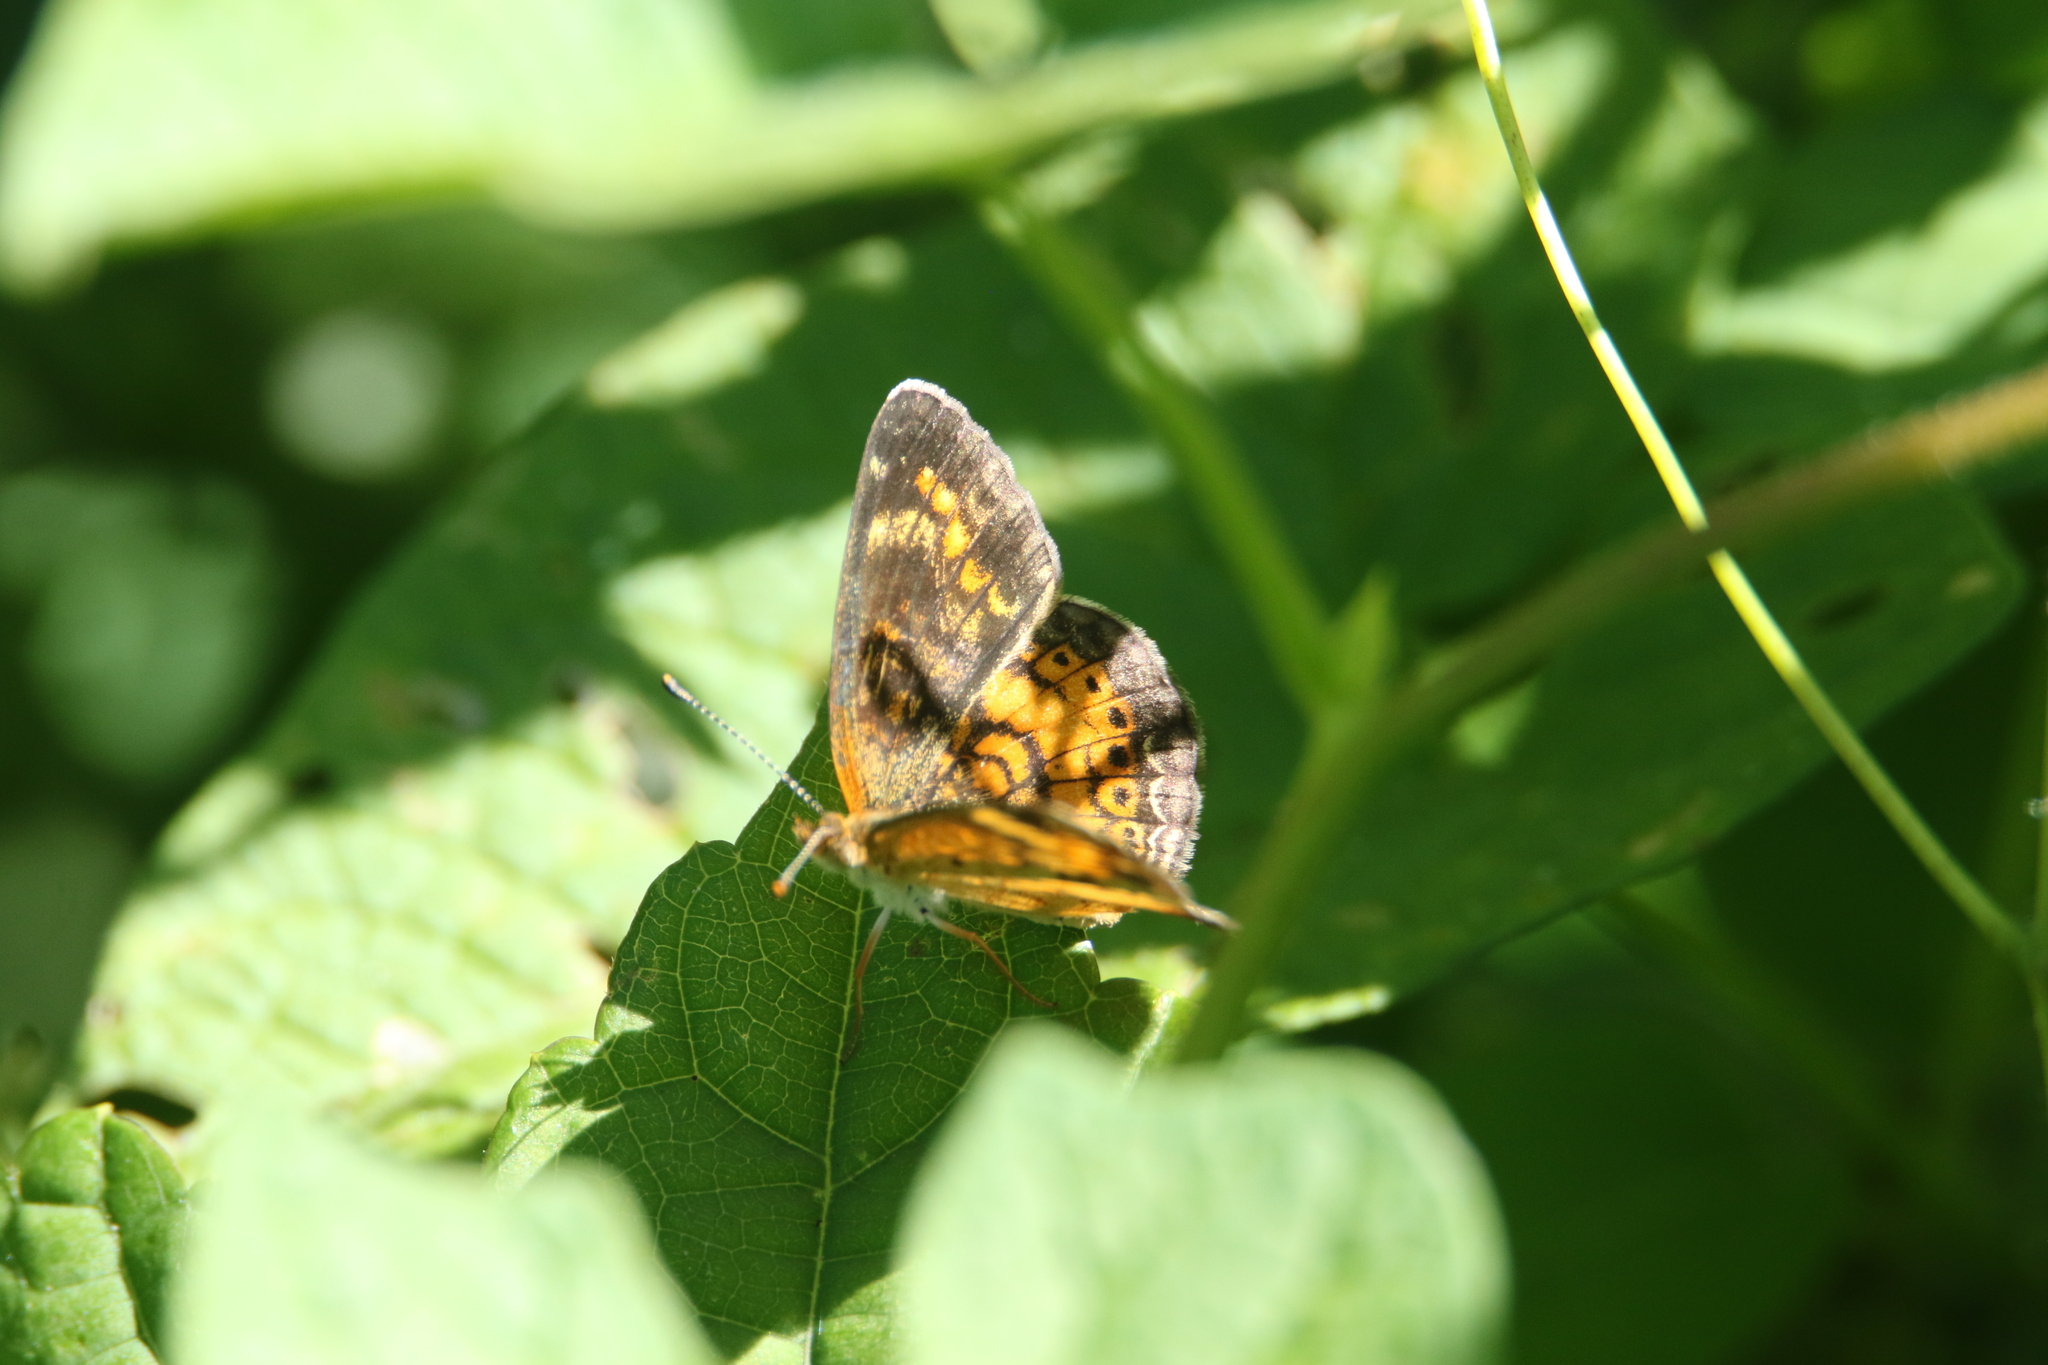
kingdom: Animalia
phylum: Arthropoda
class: Insecta
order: Lepidoptera
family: Nymphalidae
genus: Phyciodes
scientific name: Phyciodes tharos
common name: Pearl crescent
